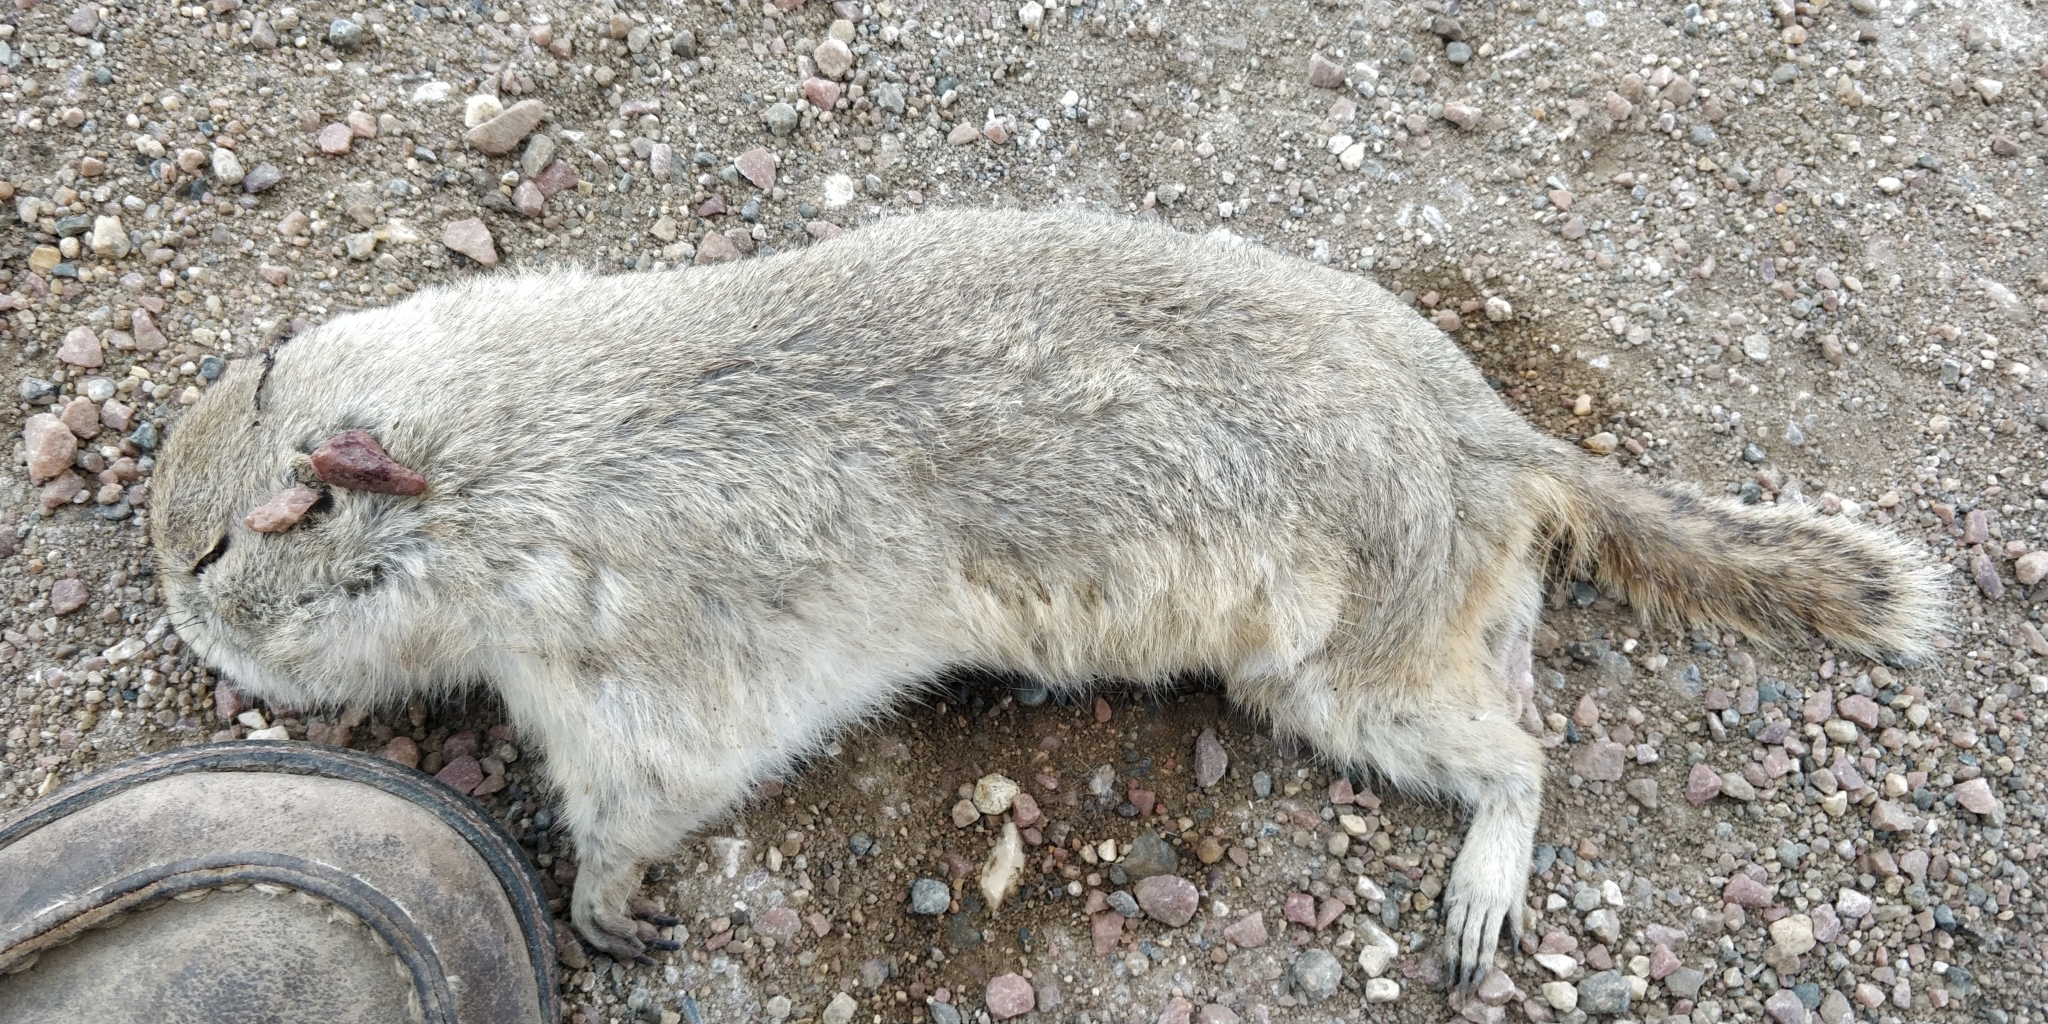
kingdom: Animalia
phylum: Chordata
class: Mammalia
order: Rodentia
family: Sciuridae
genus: Urocitellus
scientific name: Urocitellus richardsonii
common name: Richardson's ground squirrel
